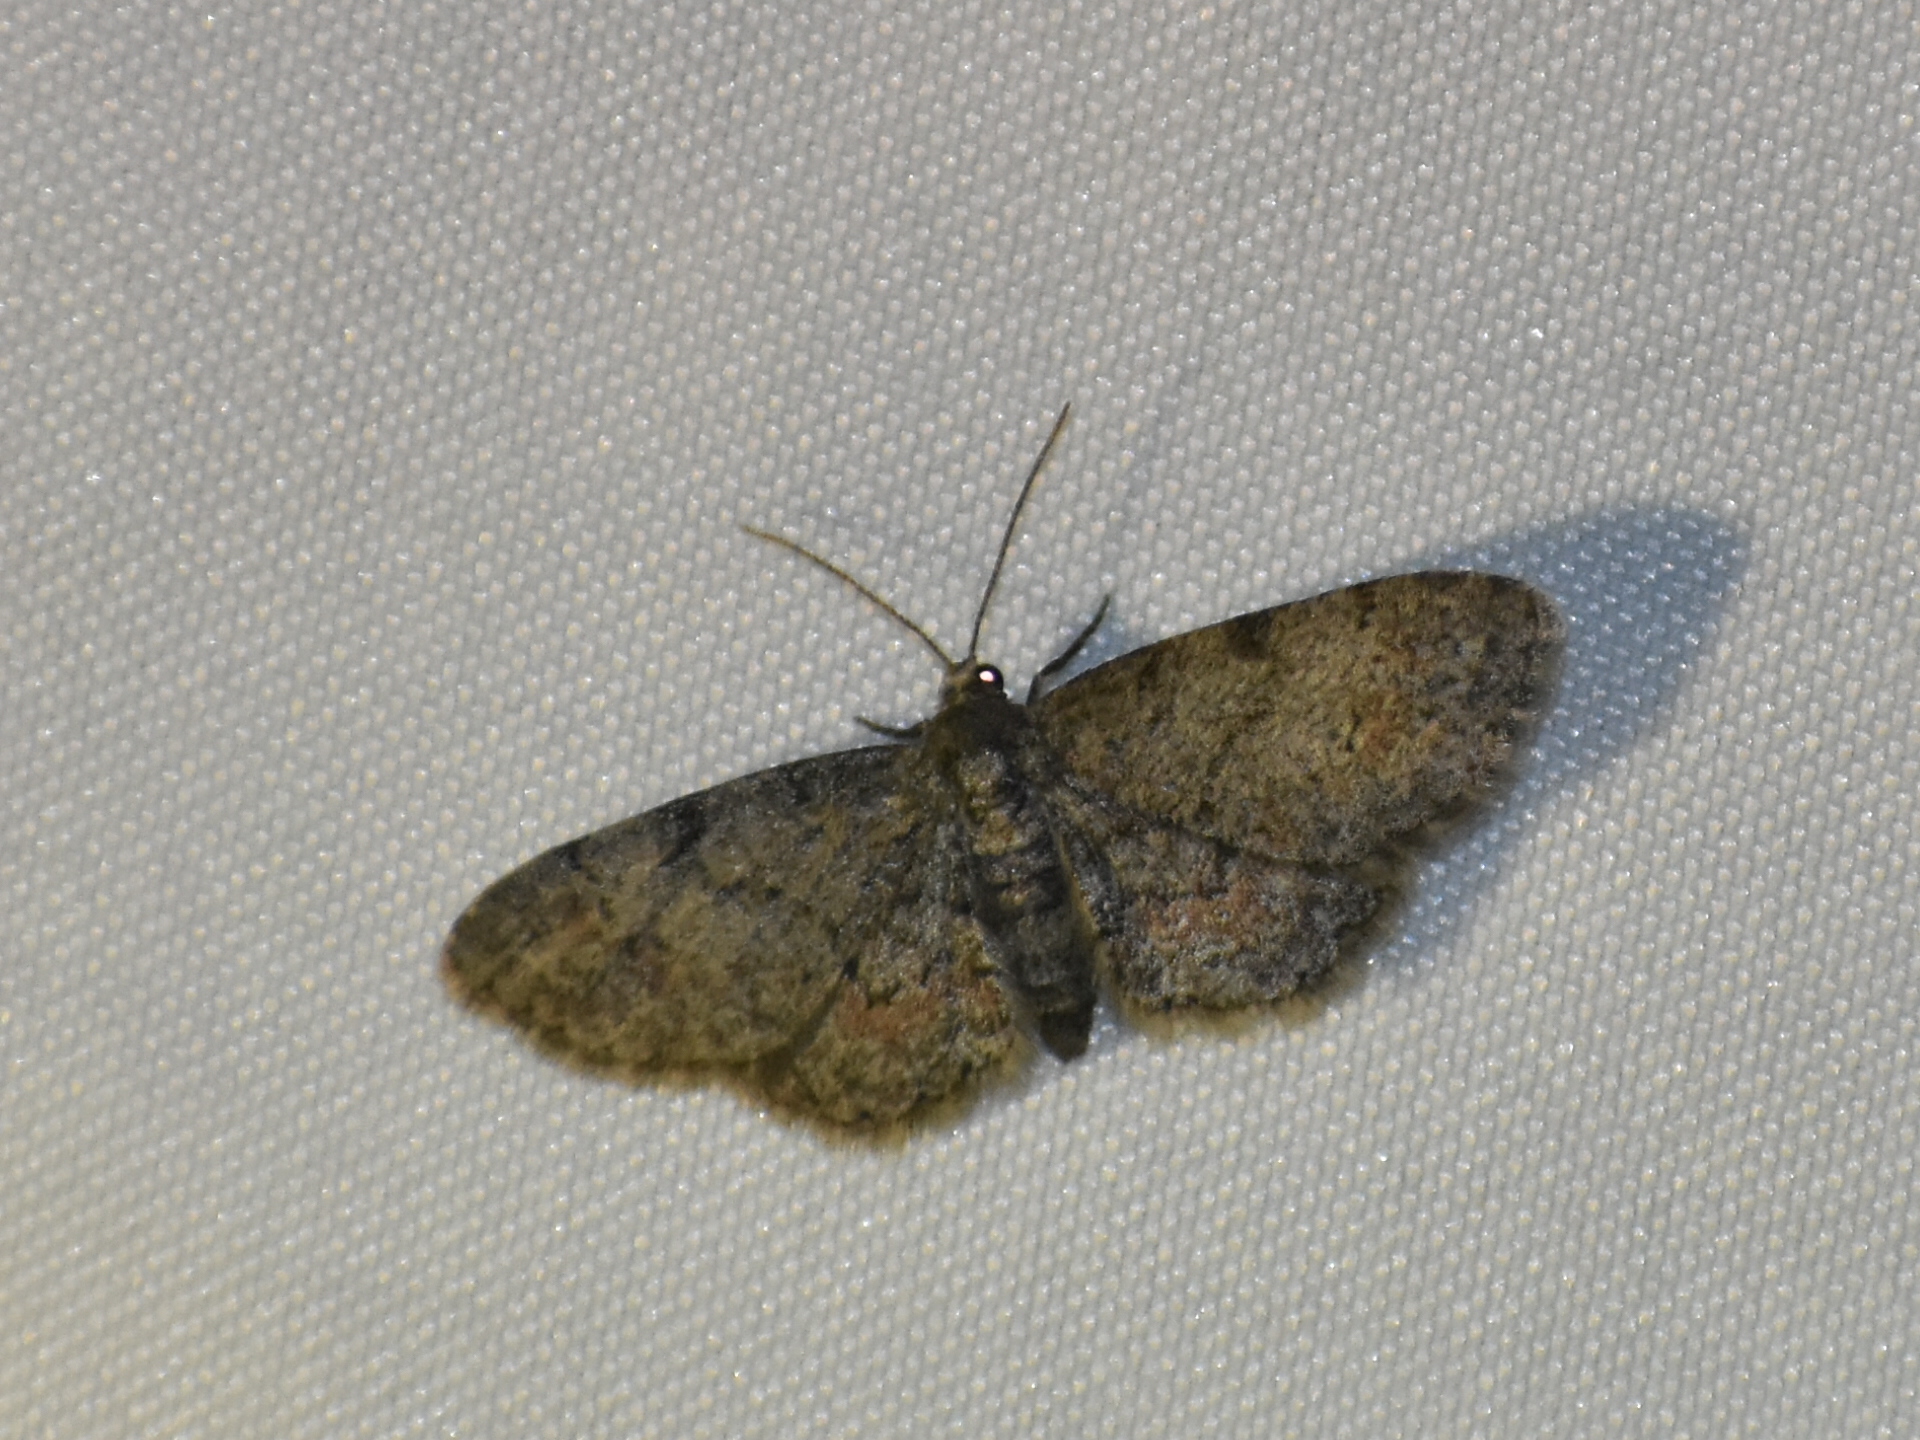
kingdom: Animalia
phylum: Arthropoda
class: Insecta
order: Lepidoptera
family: Geometridae
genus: Glenoides
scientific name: Glenoides texanaria
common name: Texas gray
